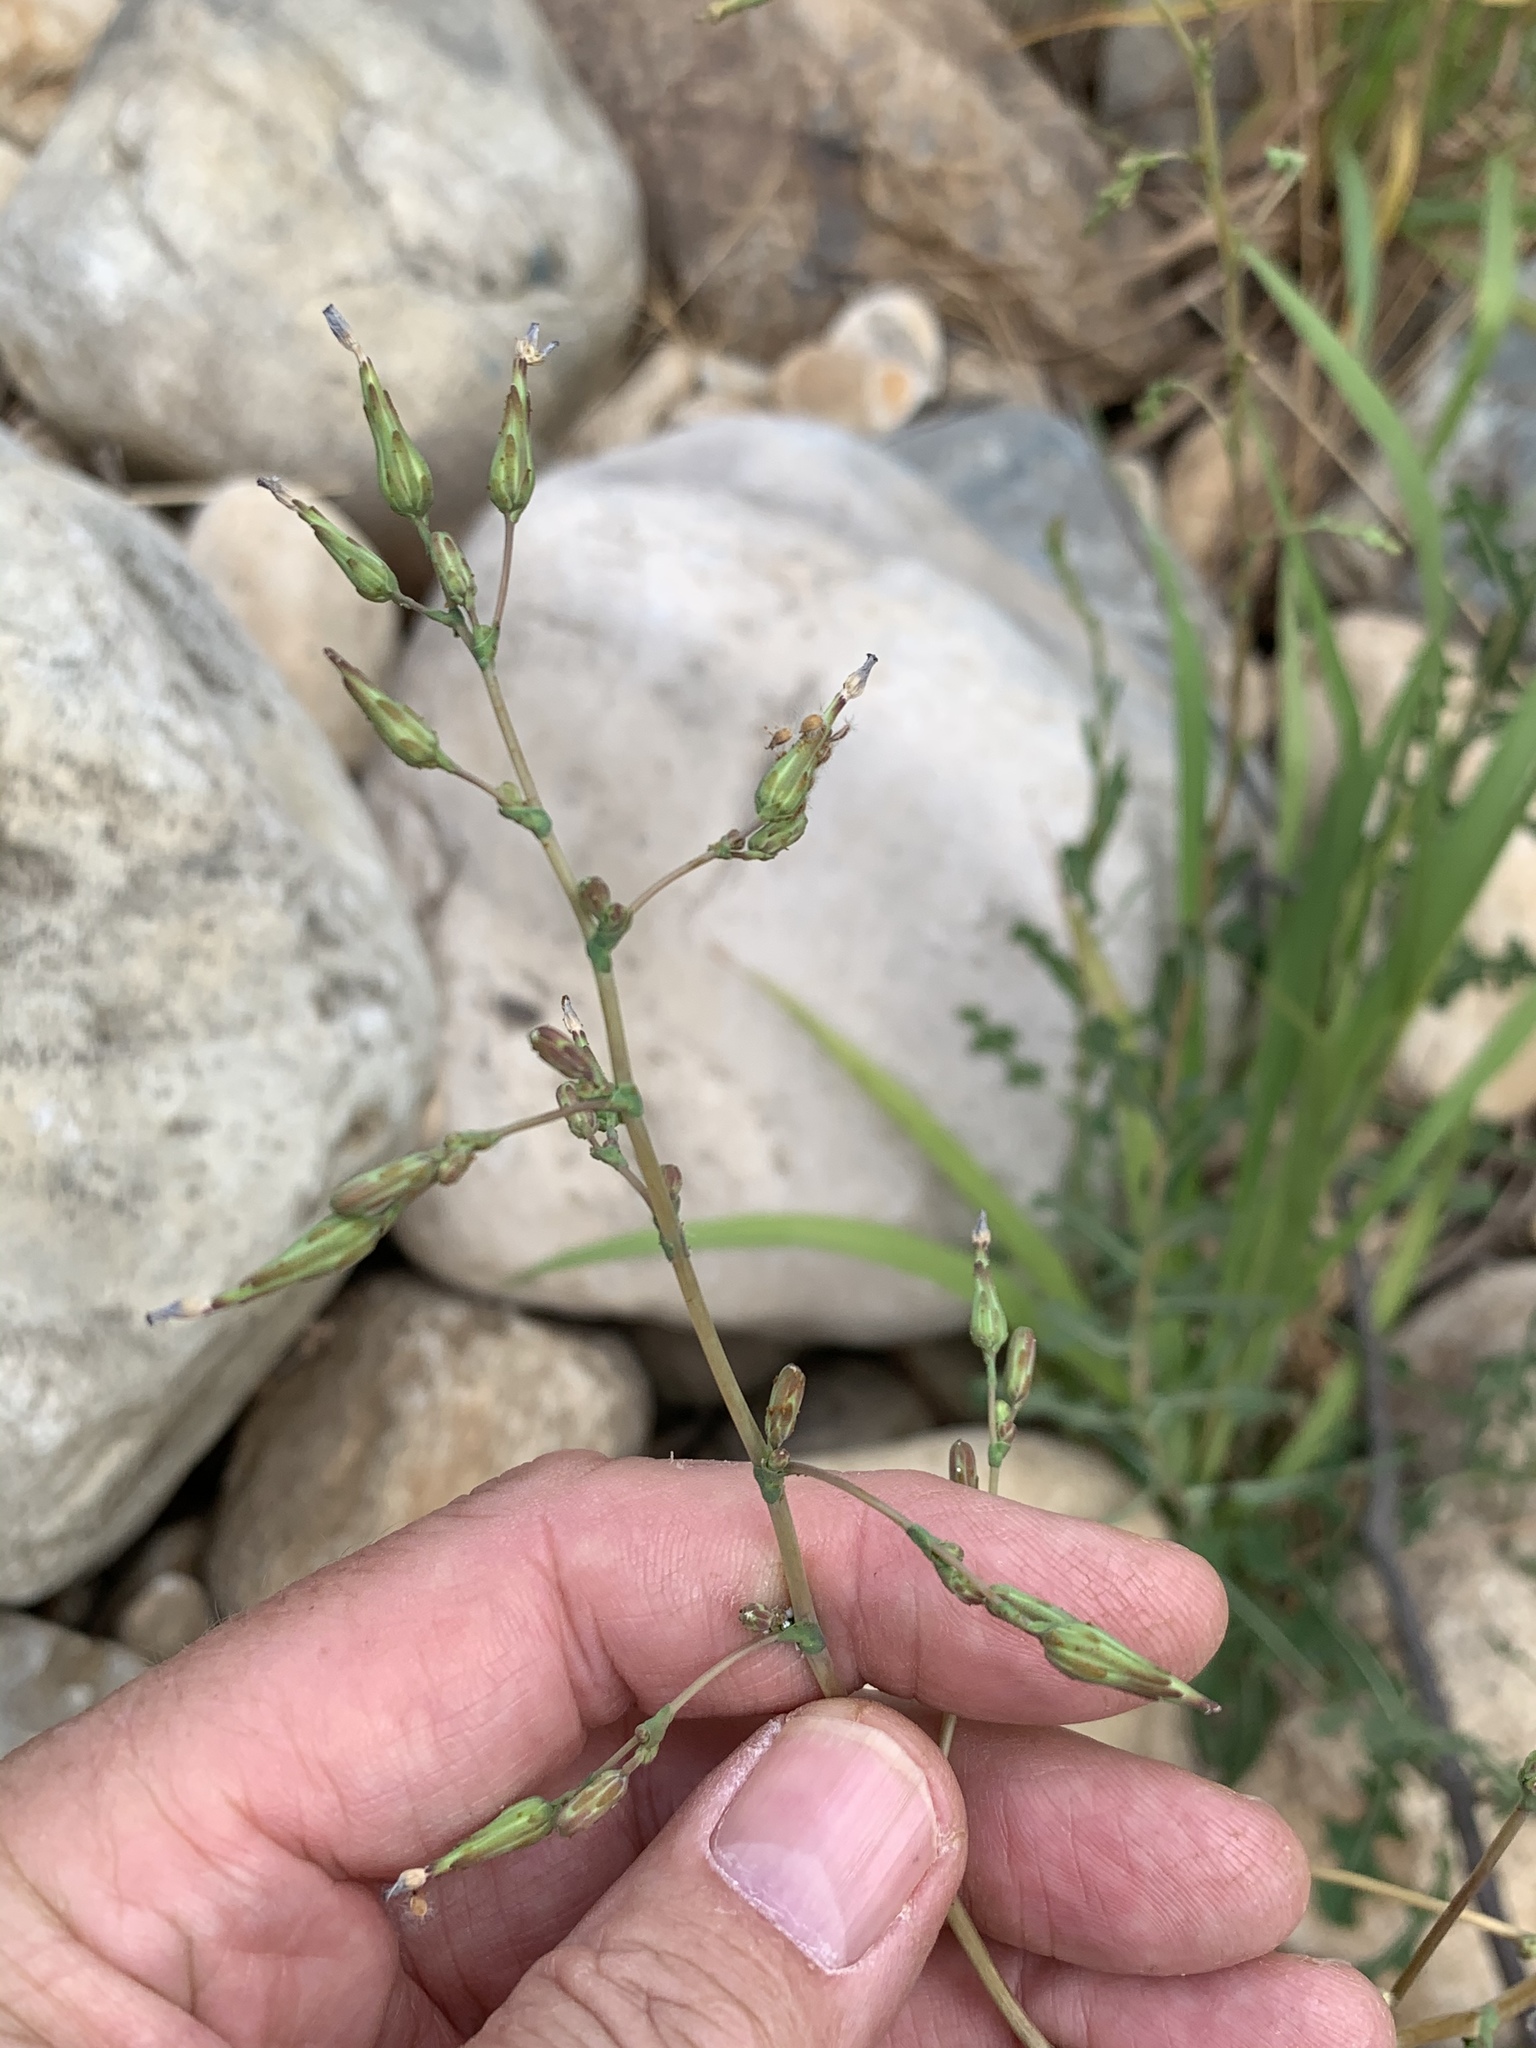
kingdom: Plantae
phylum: Tracheophyta
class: Magnoliopsida
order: Asterales
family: Asteraceae
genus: Lactuca
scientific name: Lactuca serriola
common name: Prickly lettuce
